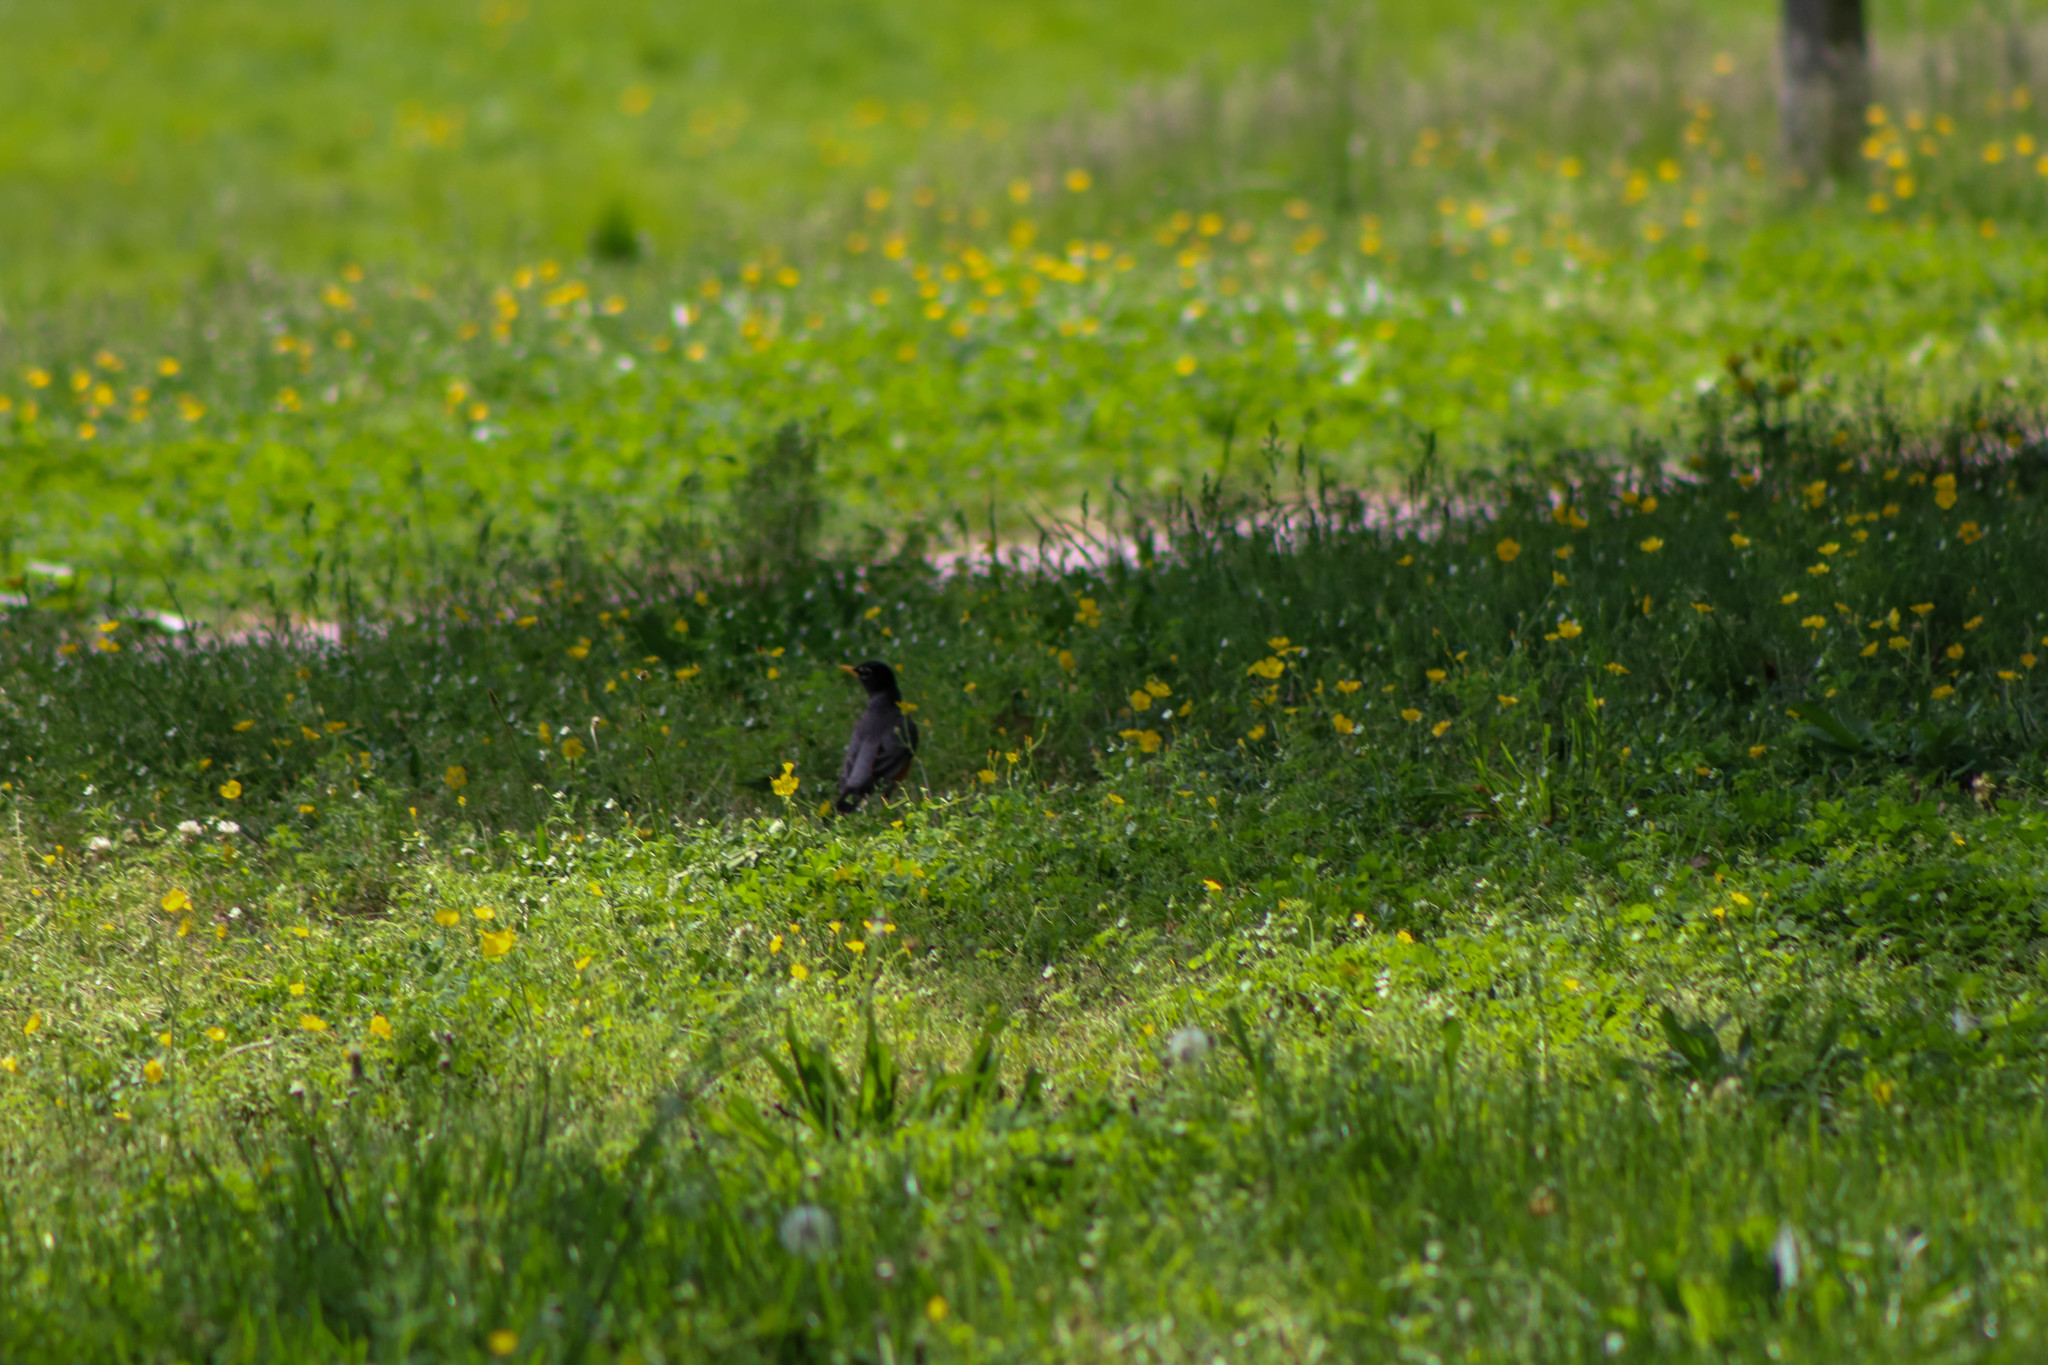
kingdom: Animalia
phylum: Chordata
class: Aves
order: Passeriformes
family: Turdidae
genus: Turdus
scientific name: Turdus migratorius
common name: American robin
